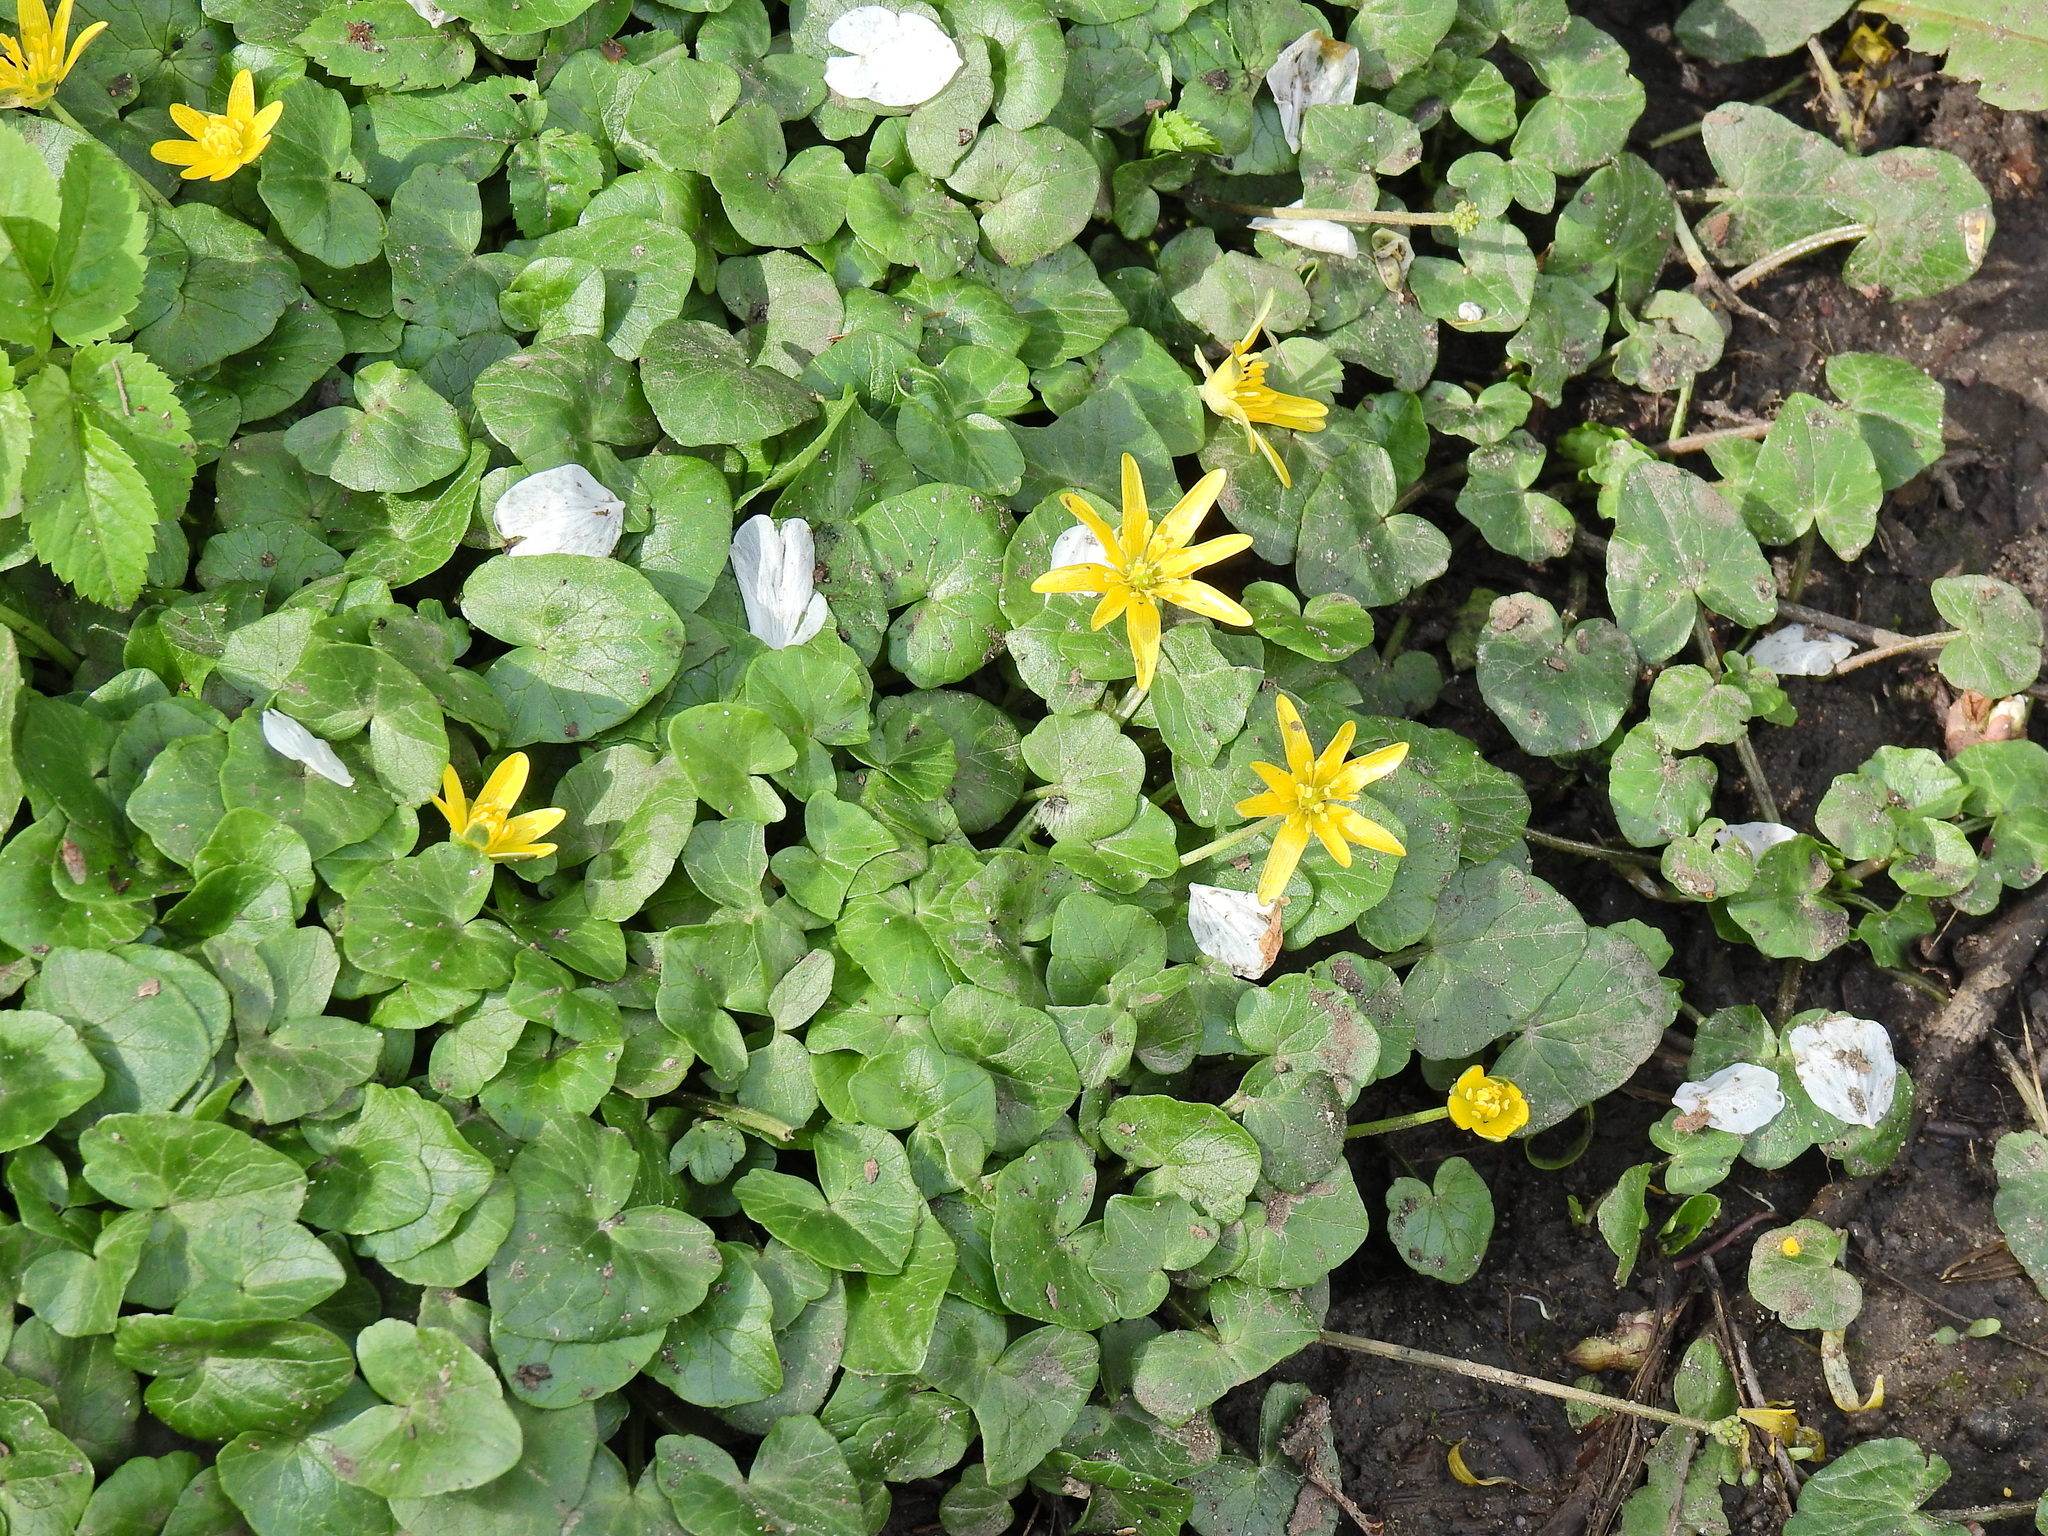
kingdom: Plantae
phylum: Tracheophyta
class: Magnoliopsida
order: Ranunculales
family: Ranunculaceae
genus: Ficaria
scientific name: Ficaria verna
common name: Lesser celandine
